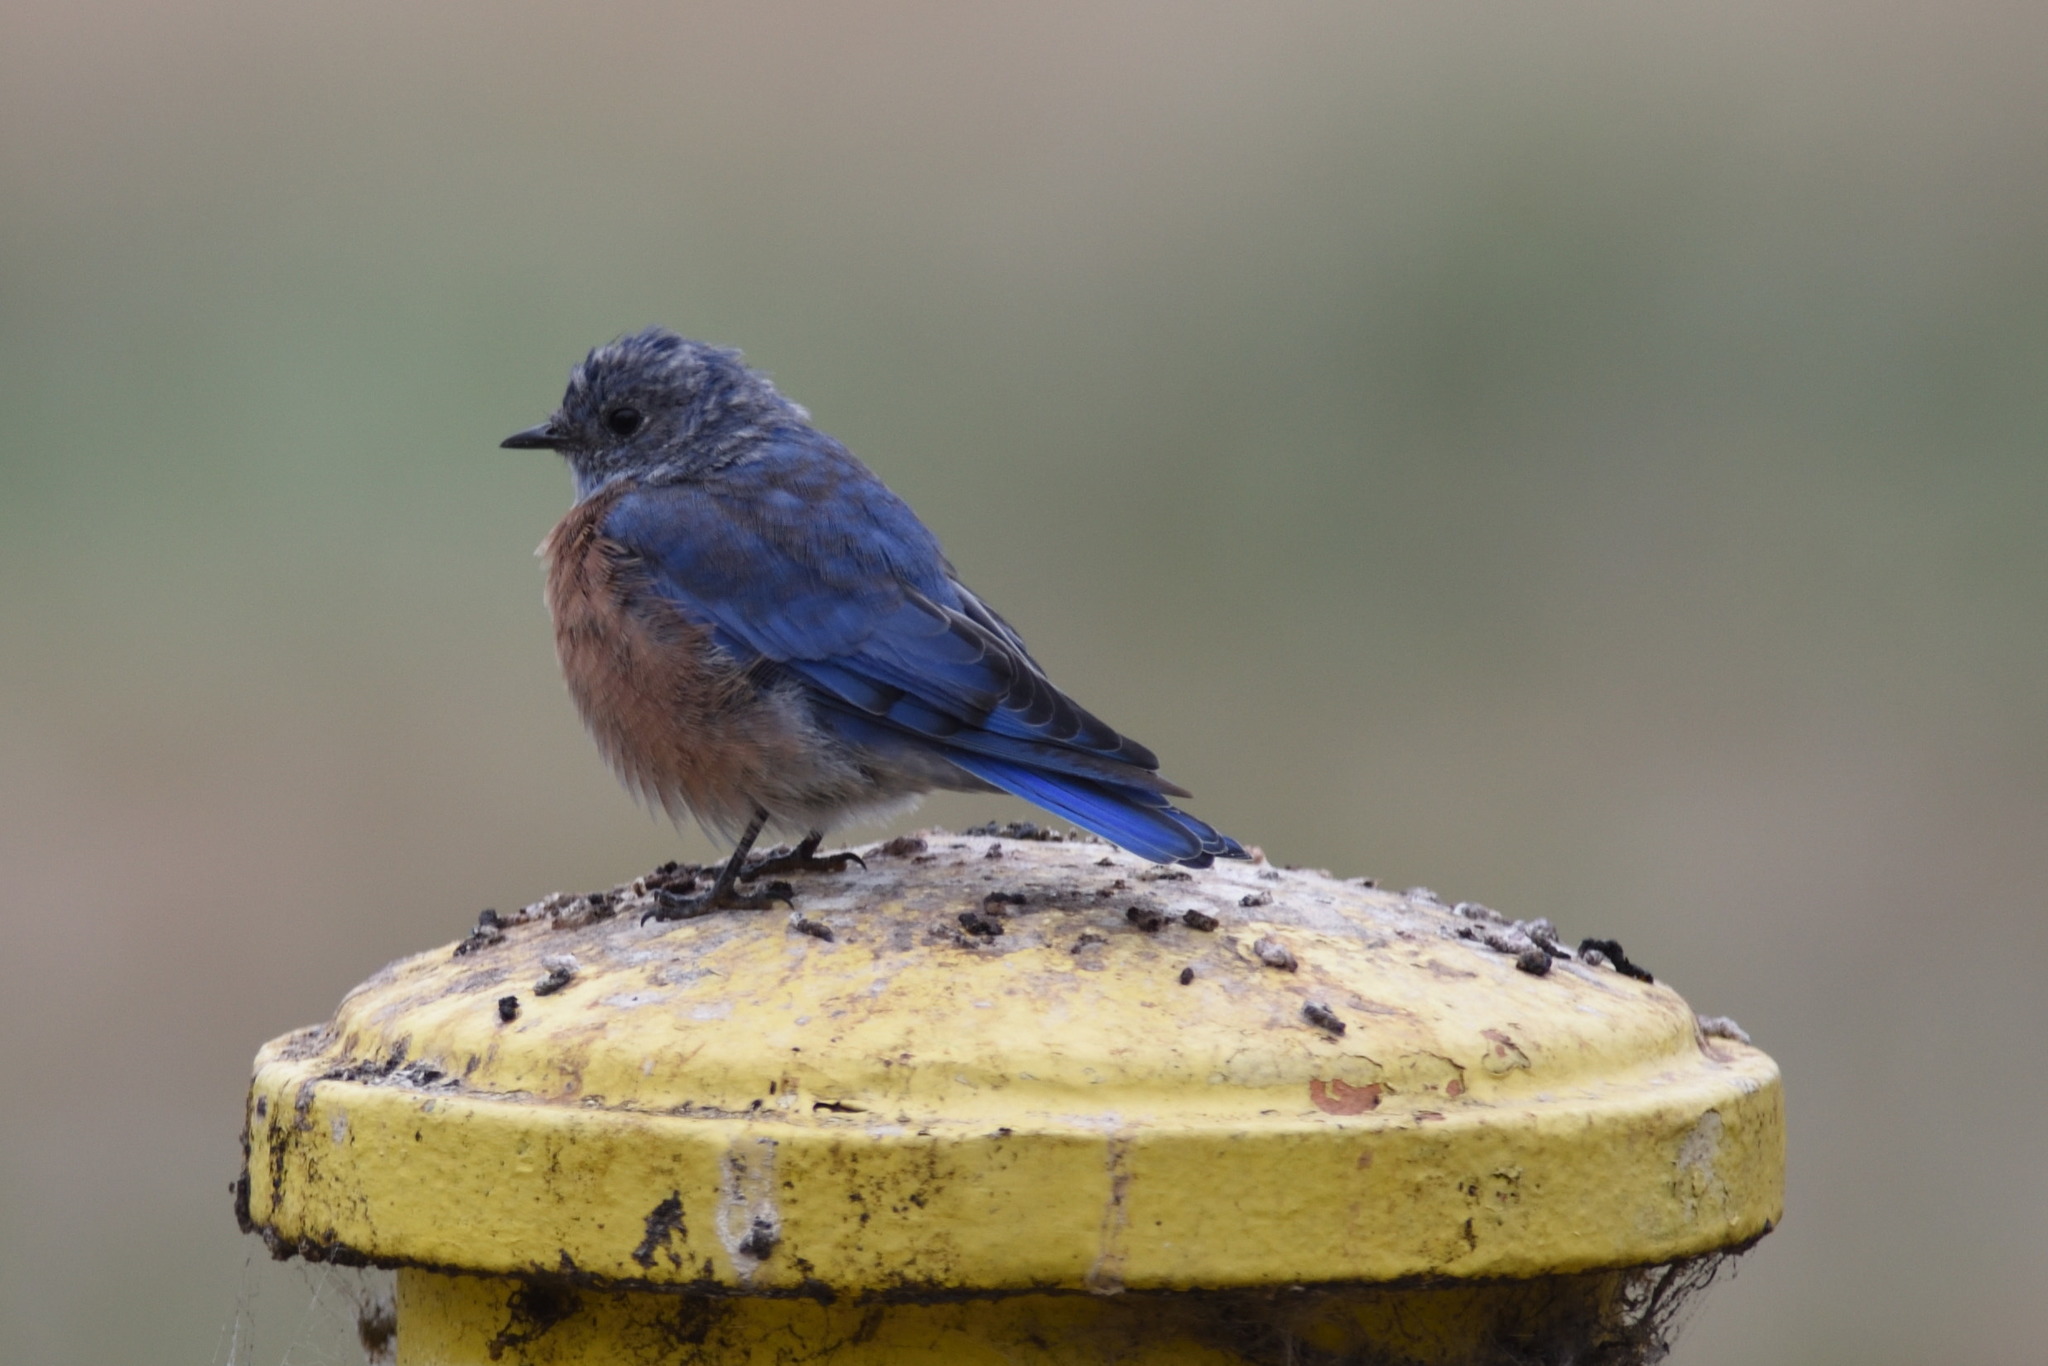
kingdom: Animalia
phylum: Chordata
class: Aves
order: Passeriformes
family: Turdidae
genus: Sialia
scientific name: Sialia mexicana
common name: Western bluebird
